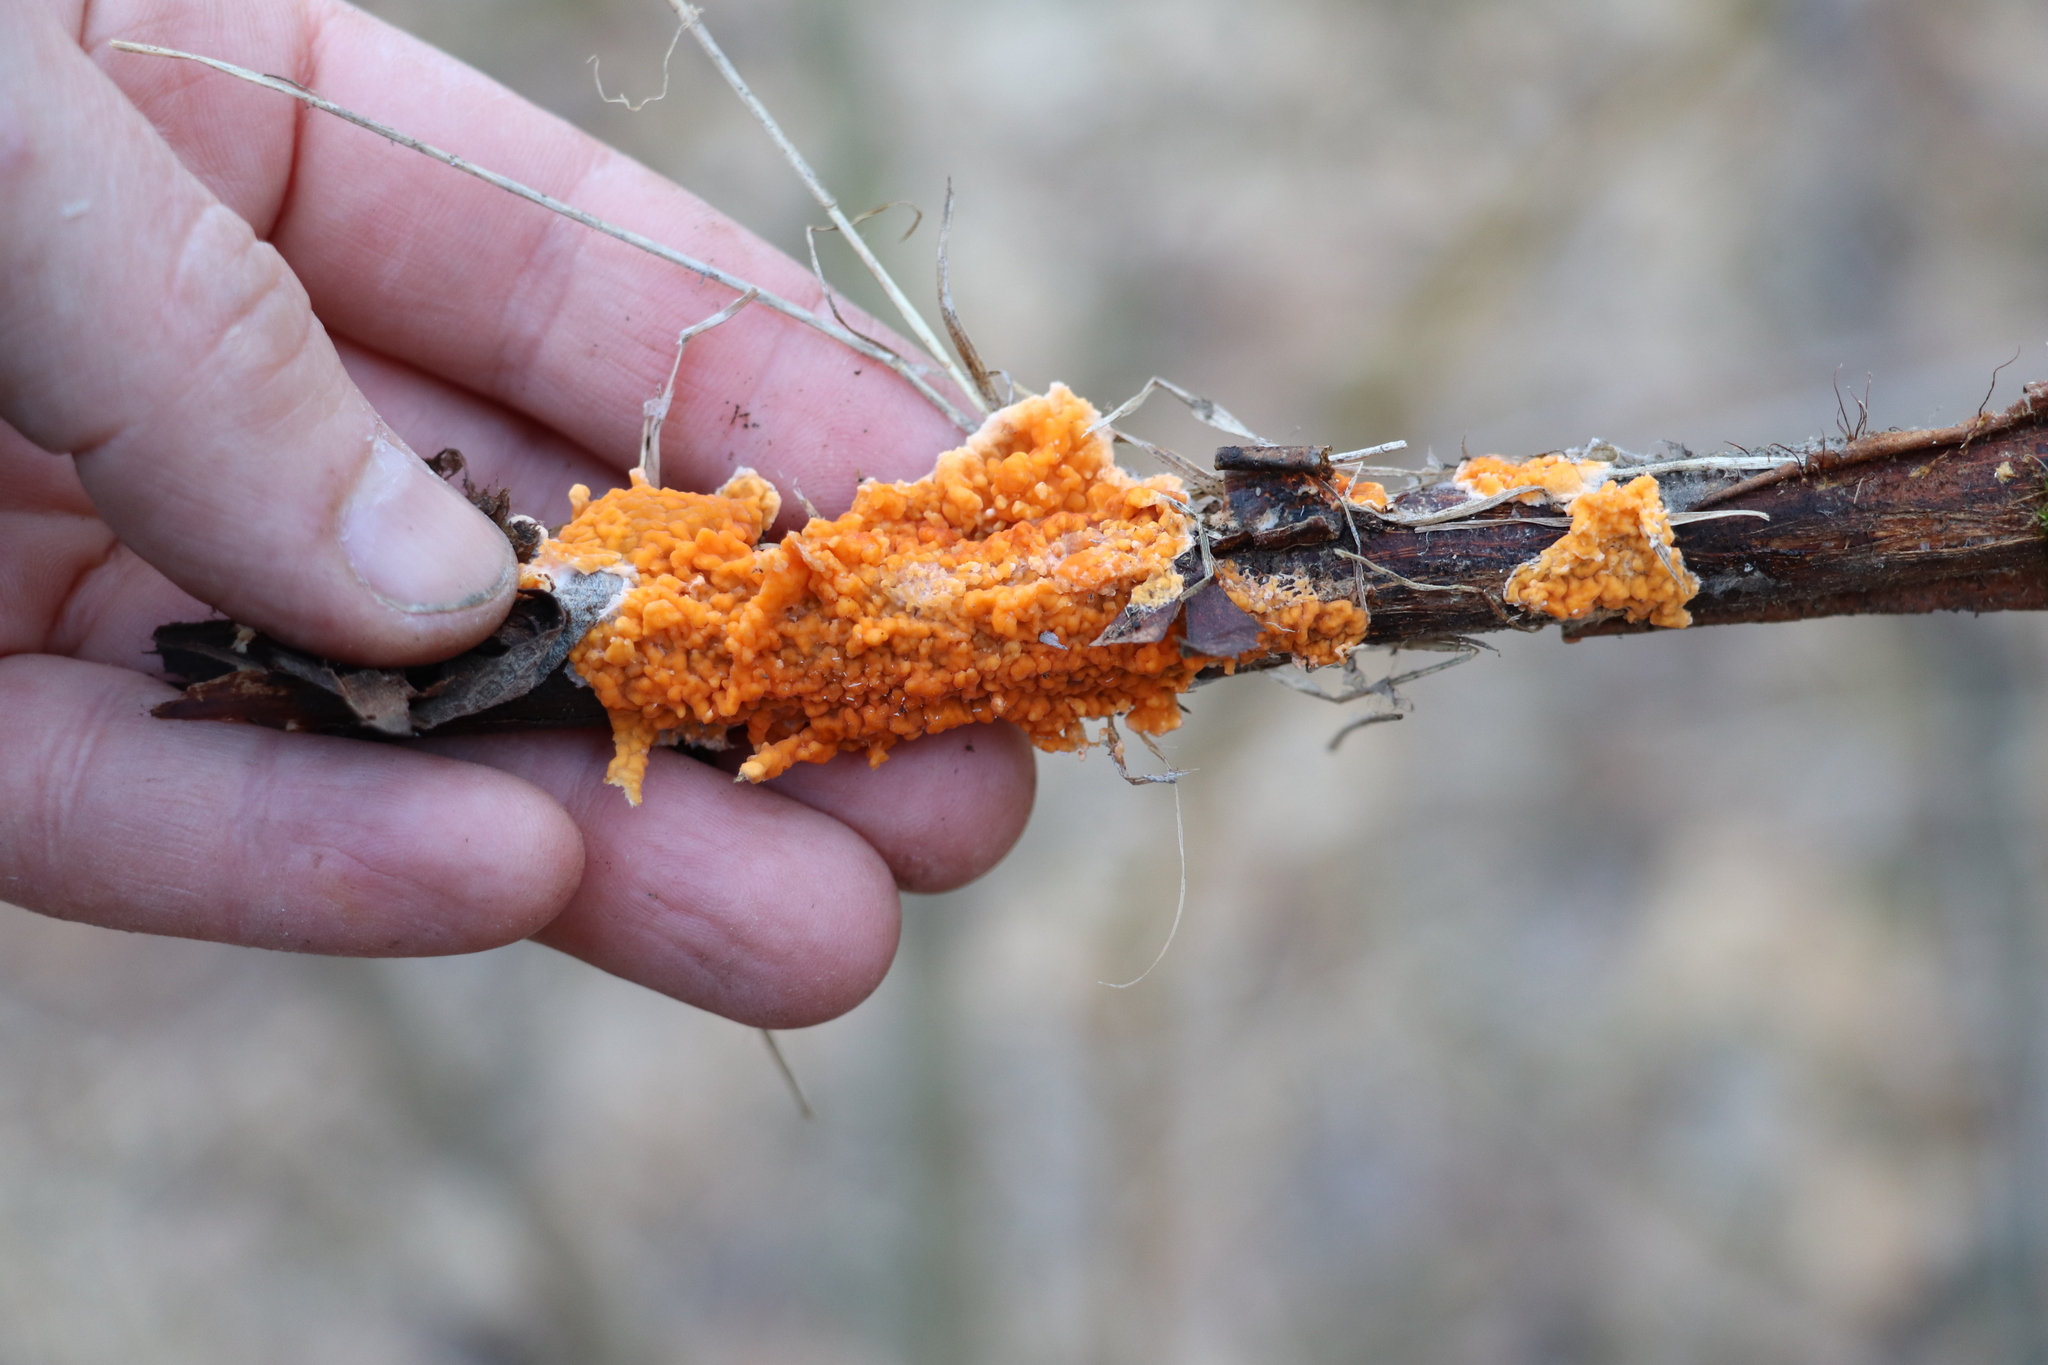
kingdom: Fungi
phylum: Basidiomycota
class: Agaricomycetes
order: Russulales
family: Peniophoraceae
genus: Peniophora
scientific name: Peniophora laurentii
